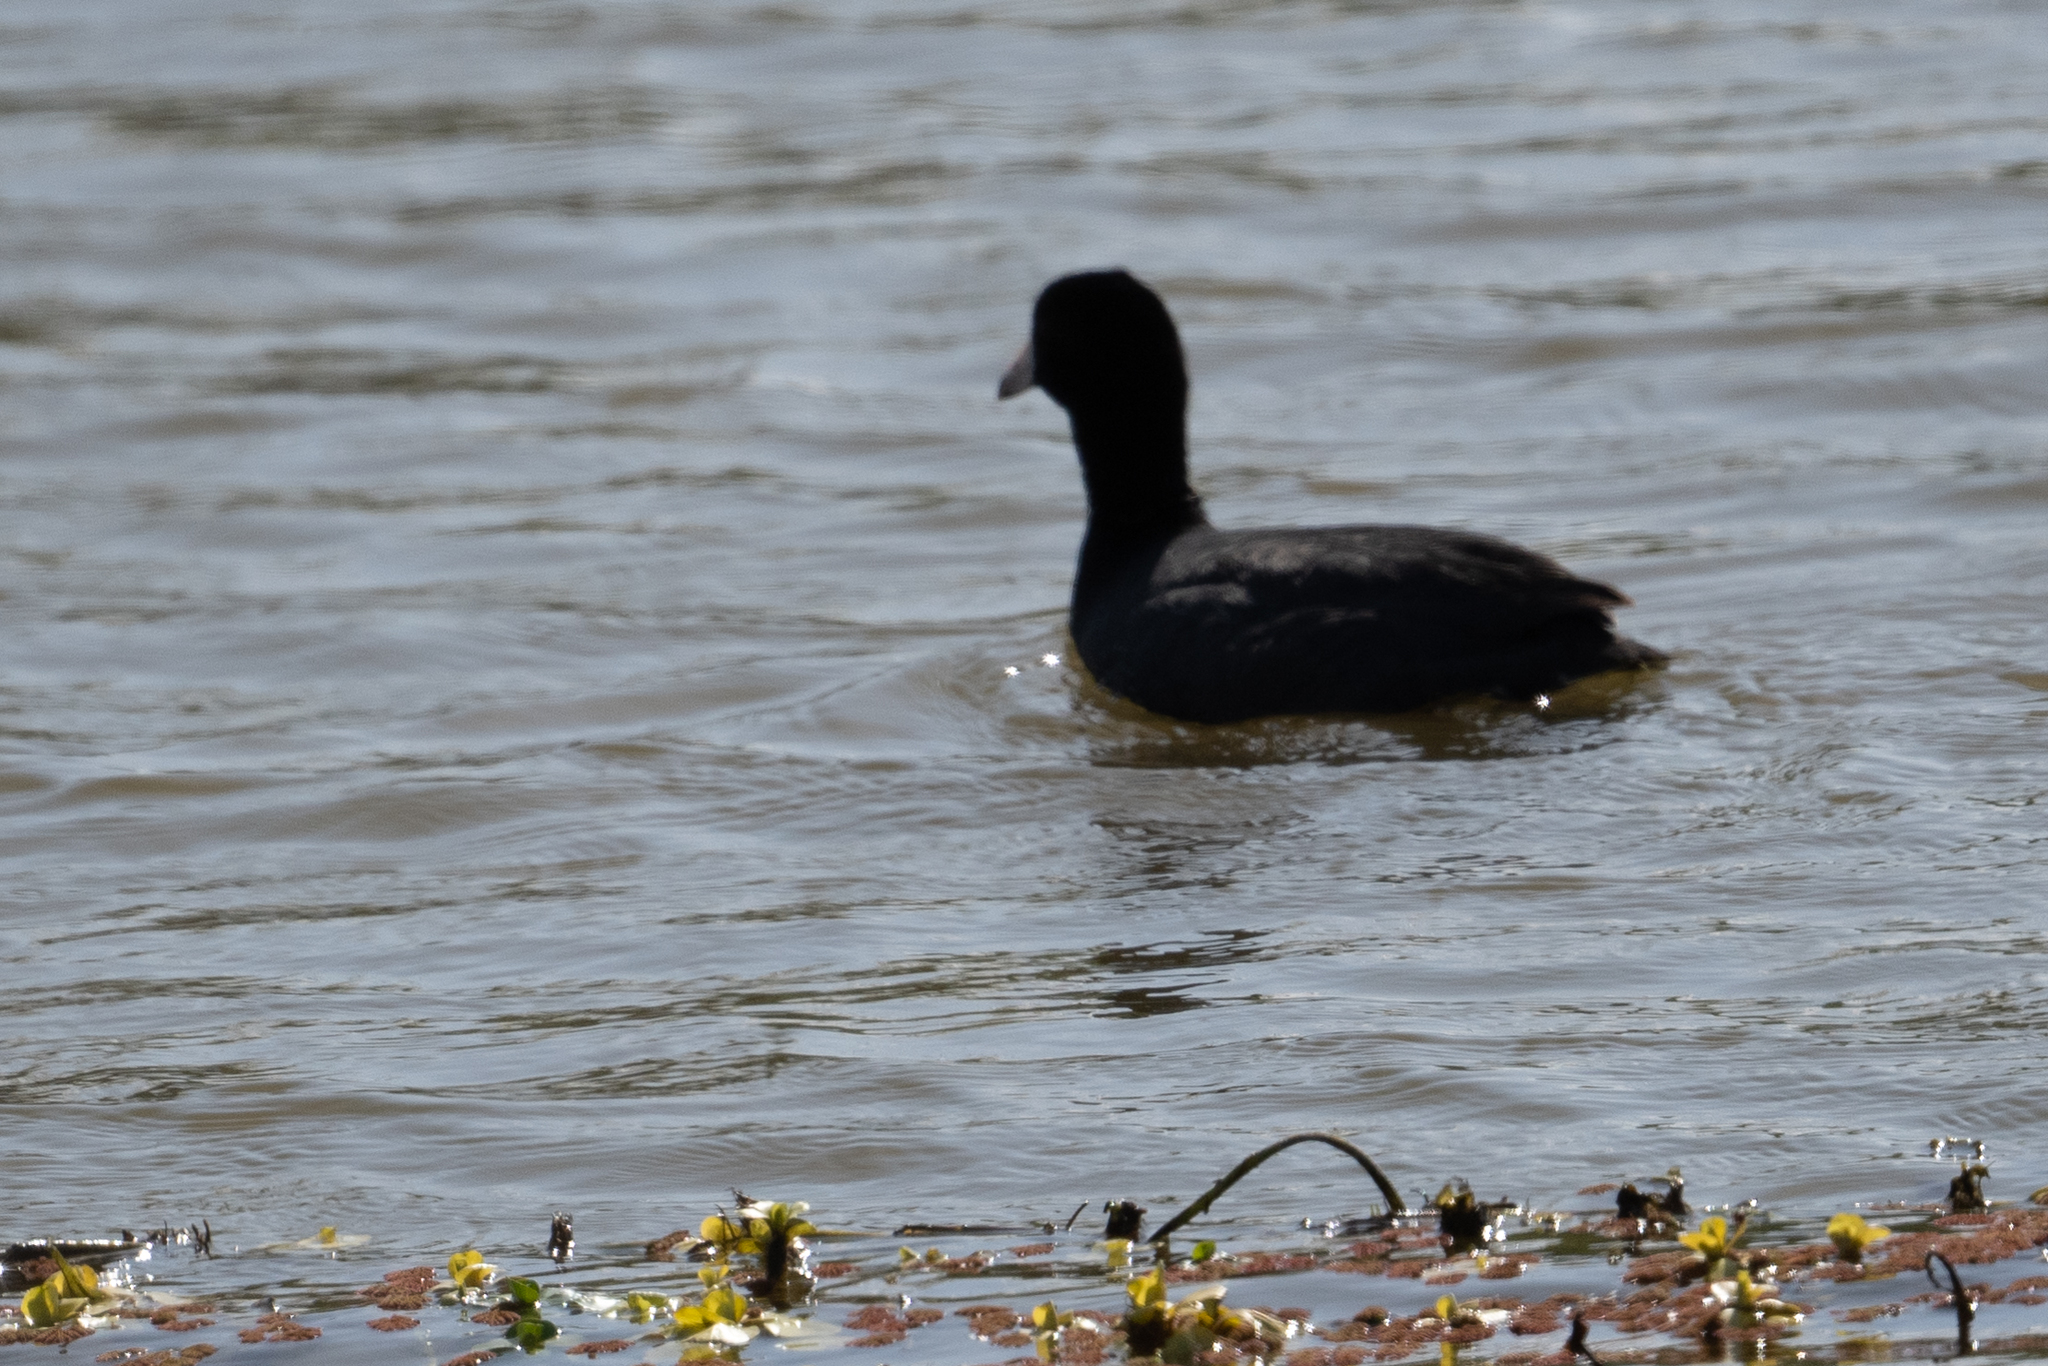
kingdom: Animalia
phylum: Chordata
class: Aves
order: Gruiformes
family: Rallidae
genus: Fulica
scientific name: Fulica americana
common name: American coot
